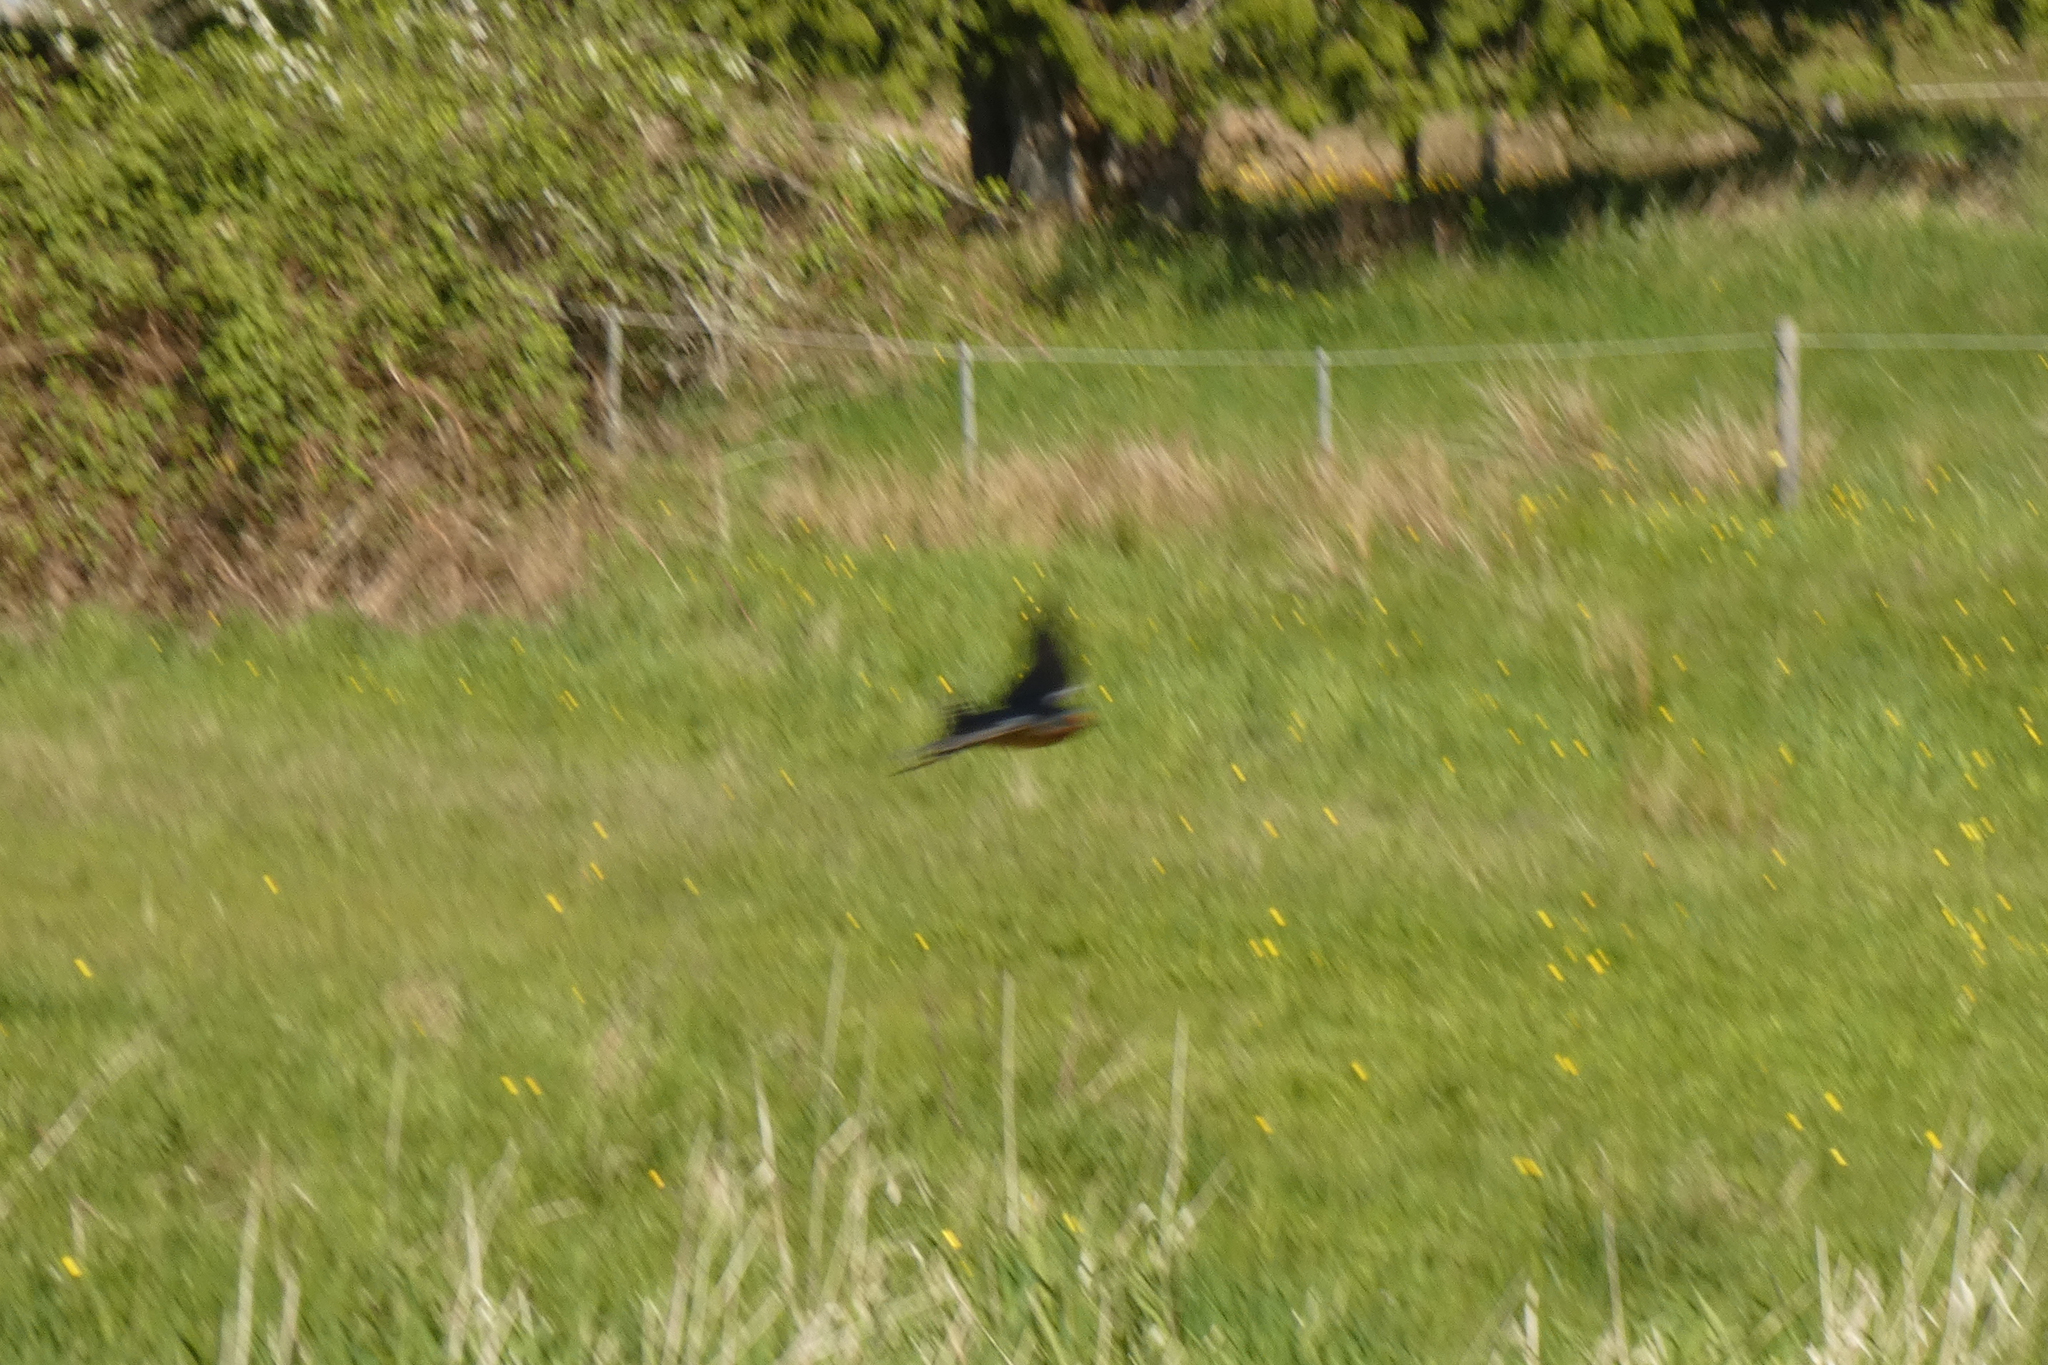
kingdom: Animalia
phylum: Chordata
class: Aves
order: Passeriformes
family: Hirundinidae
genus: Hirundo
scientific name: Hirundo rustica
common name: Barn swallow
